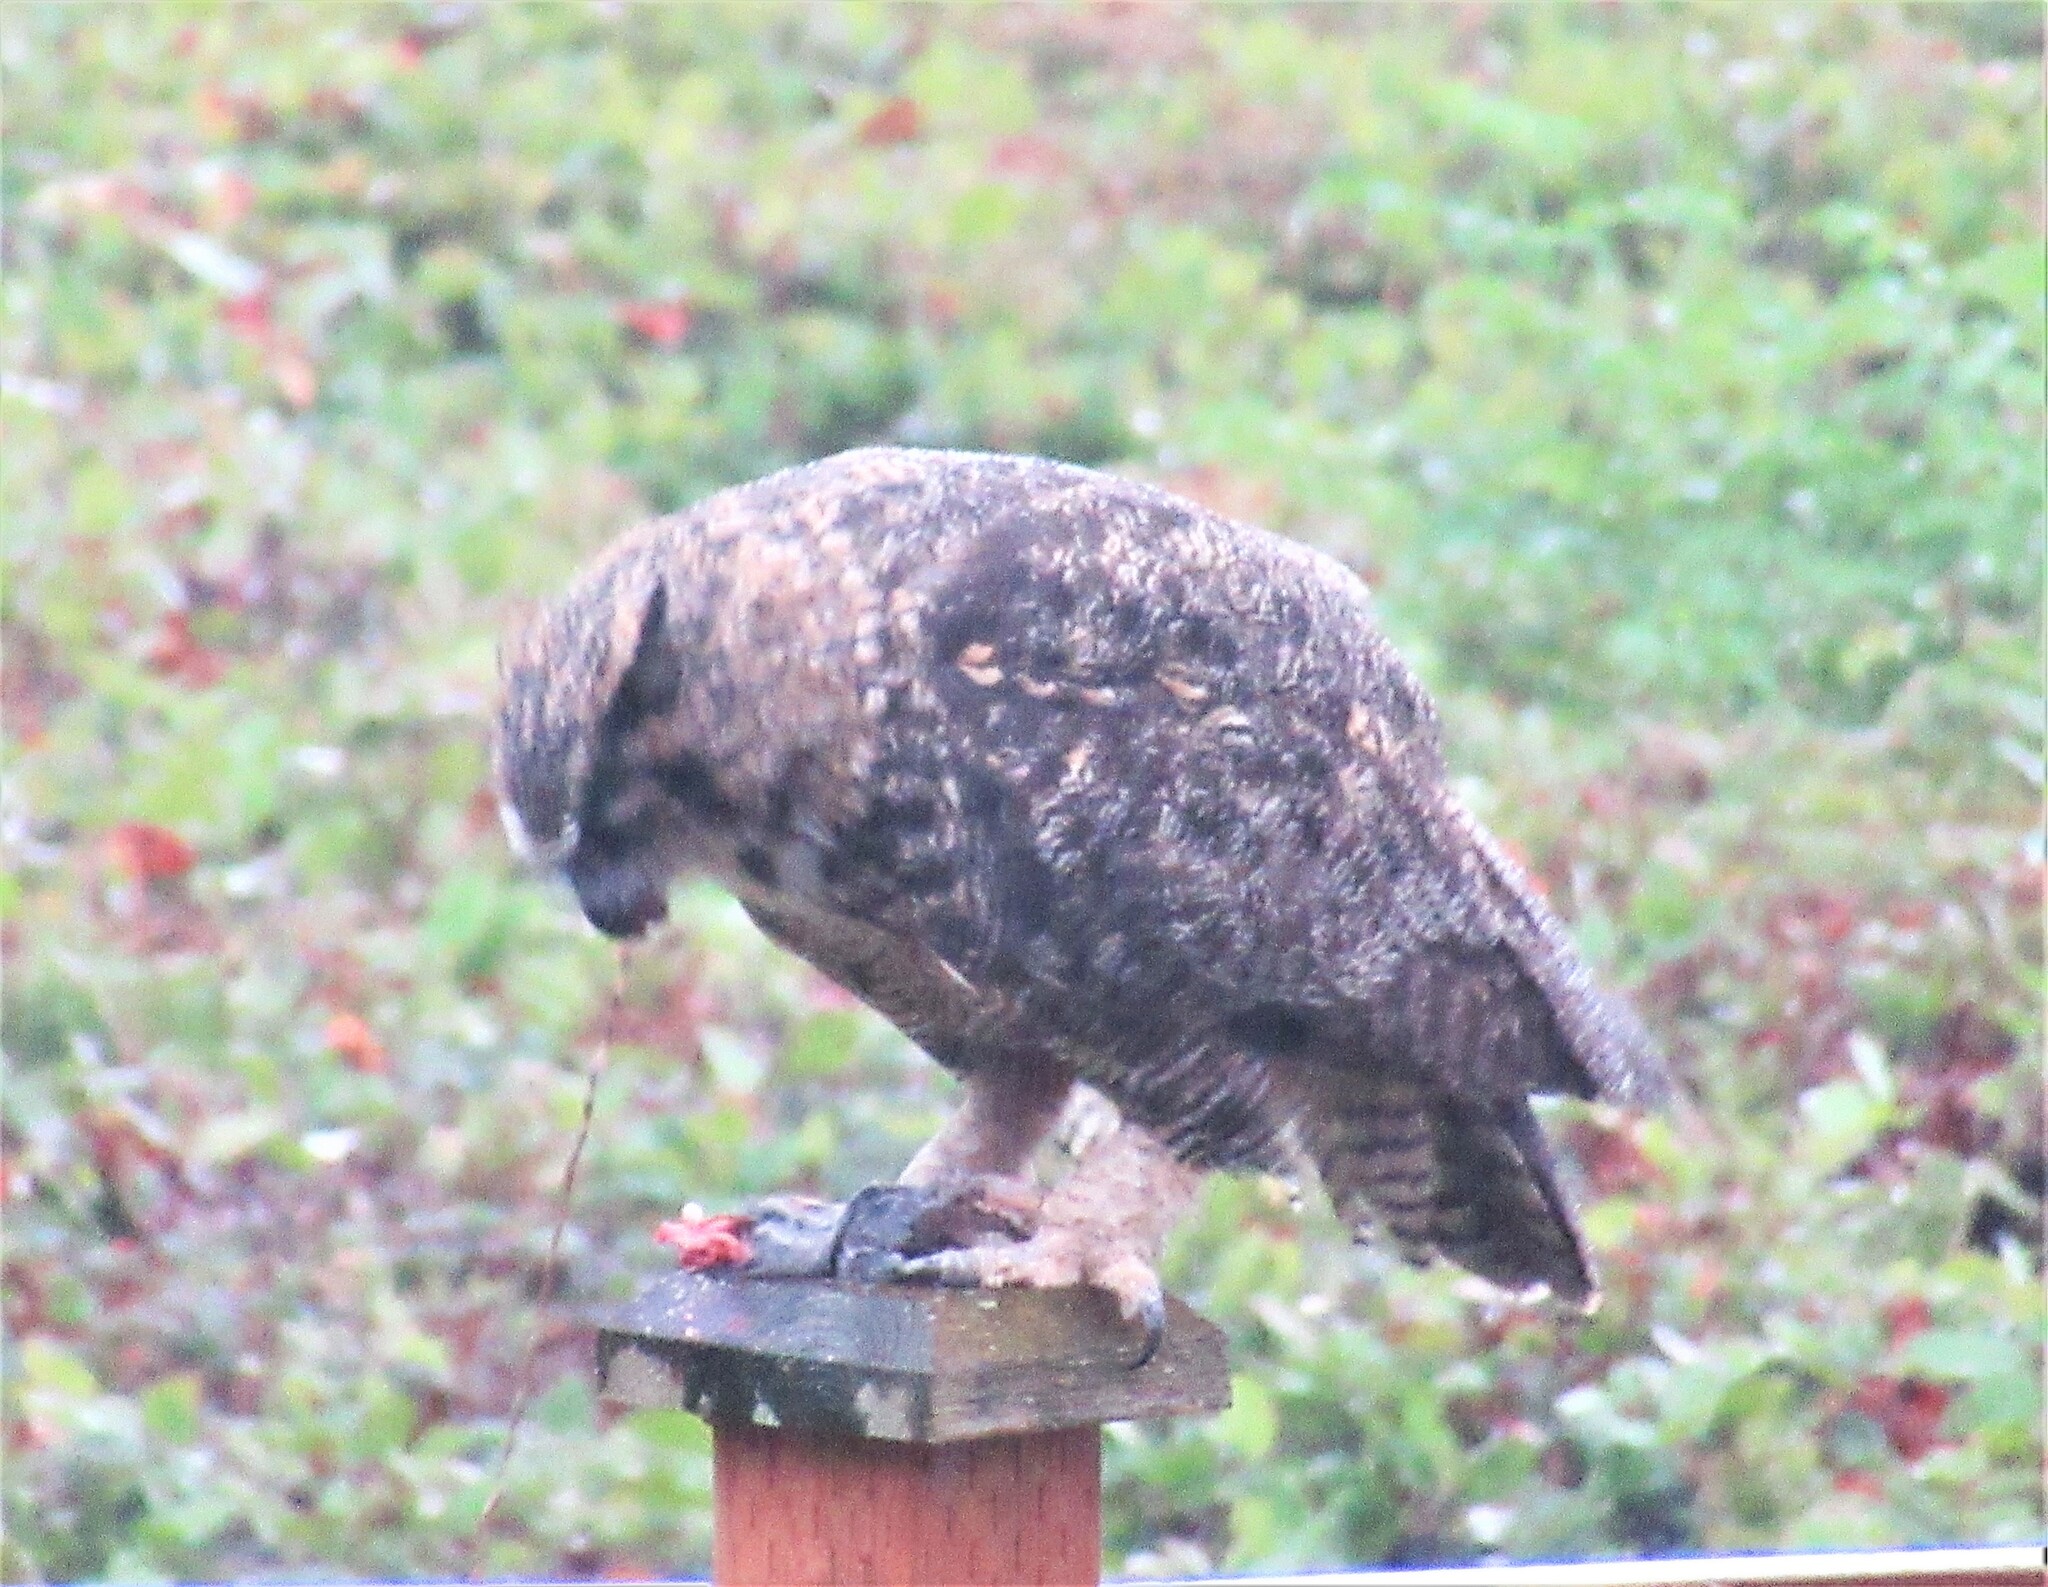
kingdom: Animalia
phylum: Chordata
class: Aves
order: Strigiformes
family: Strigidae
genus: Bubo
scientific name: Bubo virginianus
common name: Great horned owl
